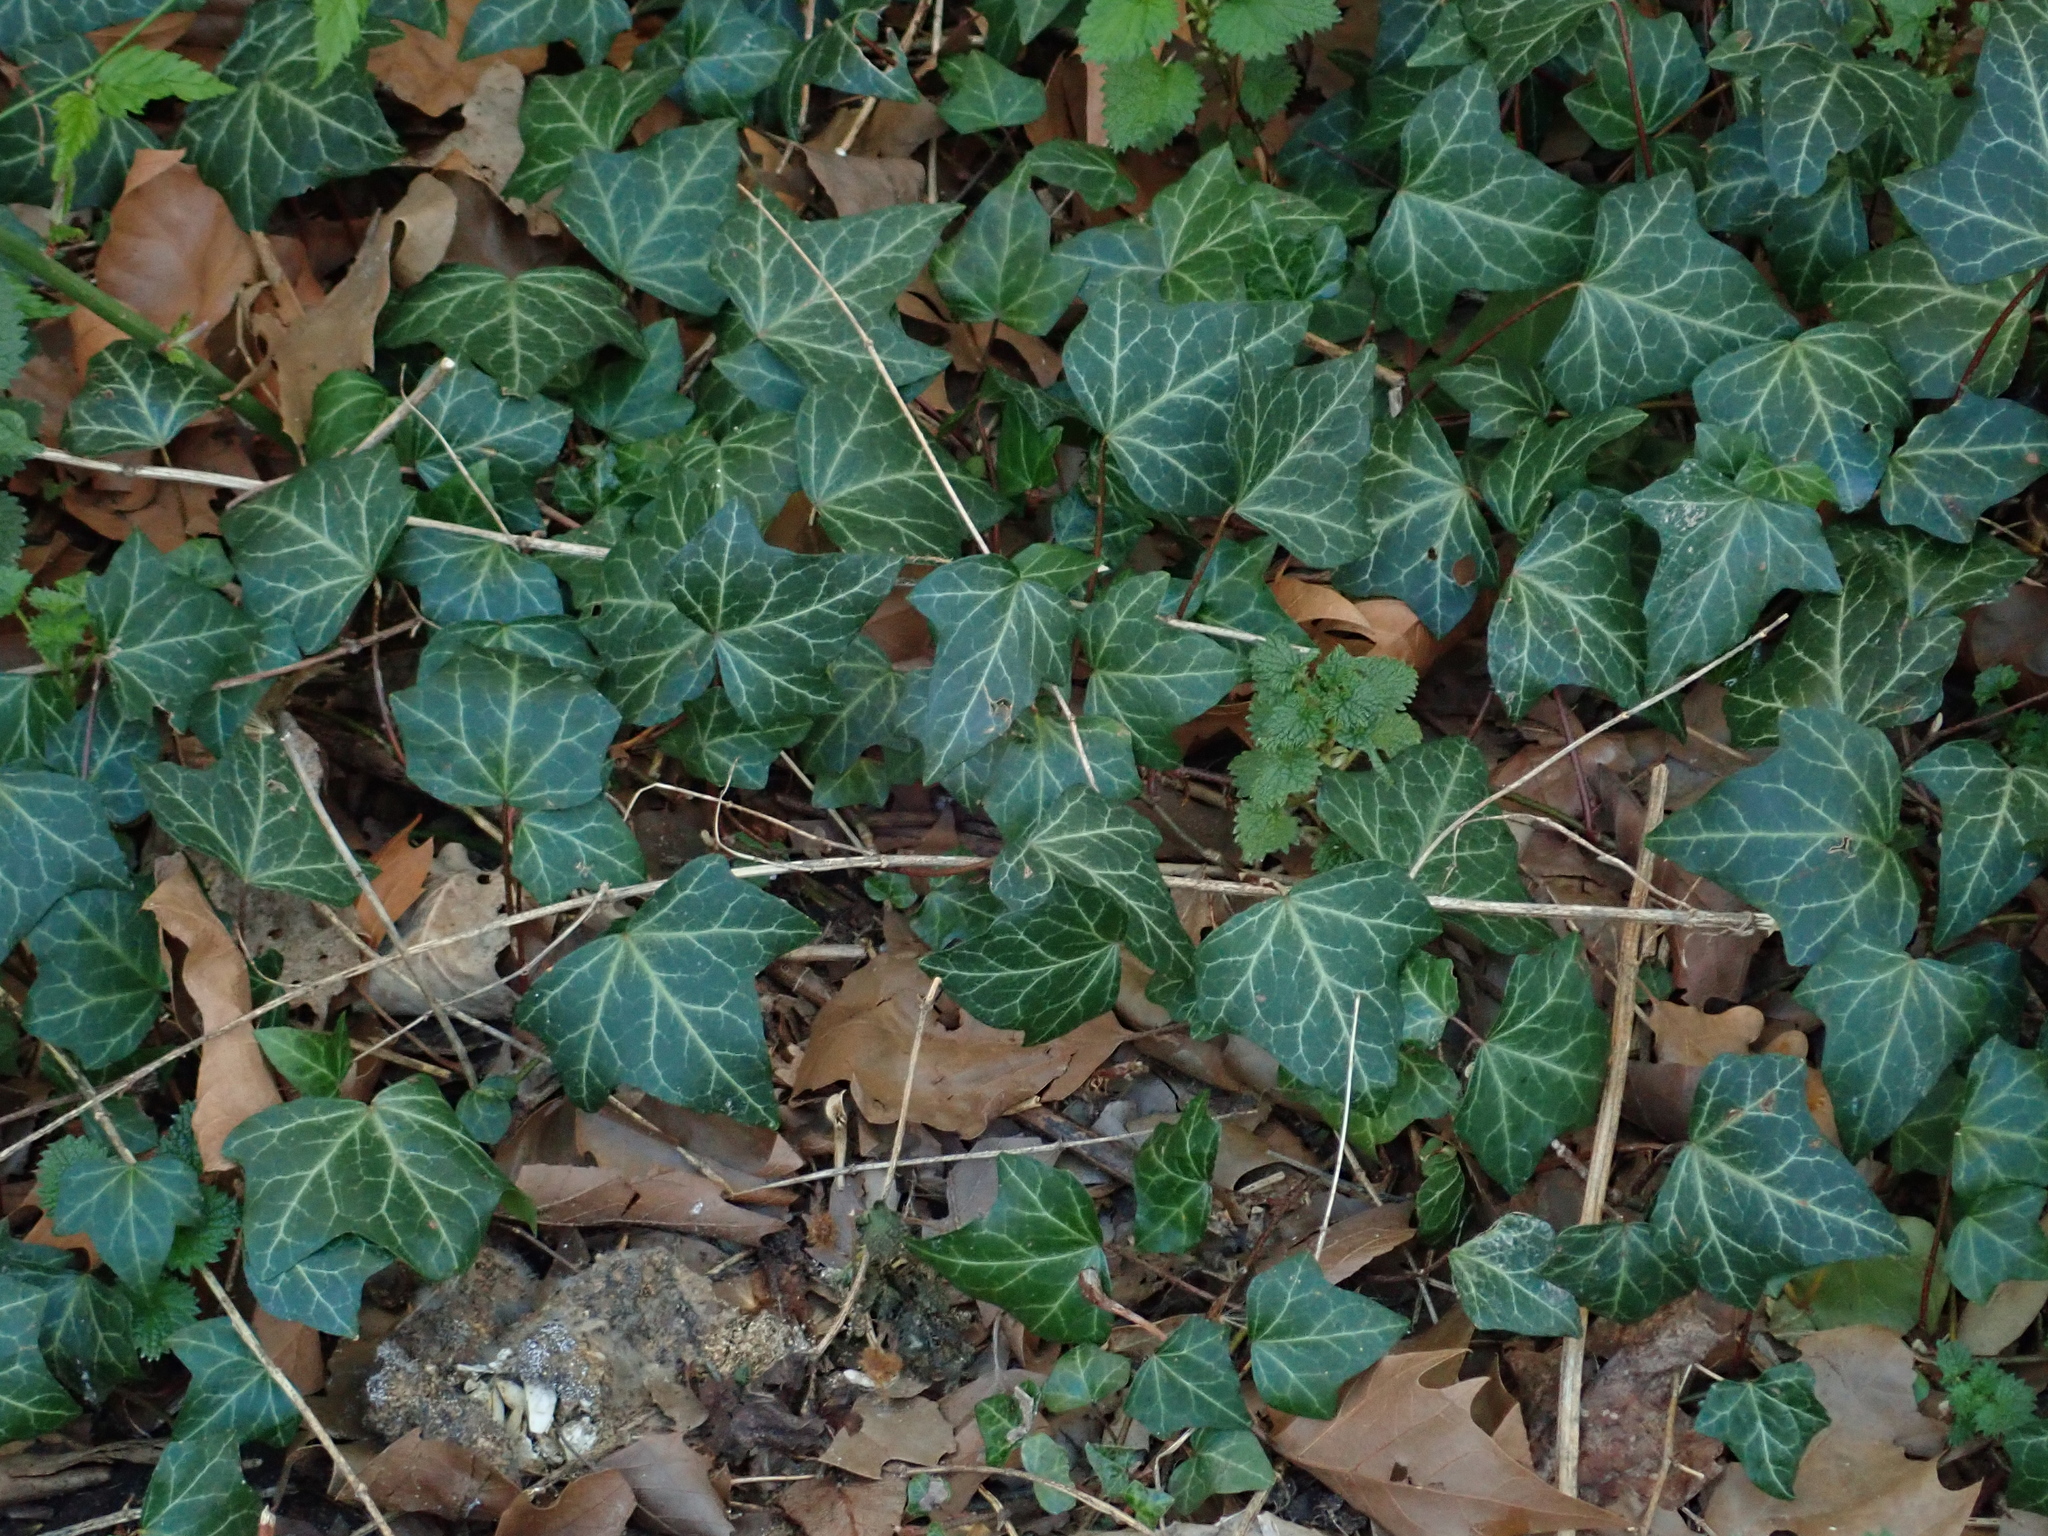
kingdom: Plantae
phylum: Tracheophyta
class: Magnoliopsida
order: Apiales
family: Araliaceae
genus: Hedera
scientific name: Hedera helix
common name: Ivy
